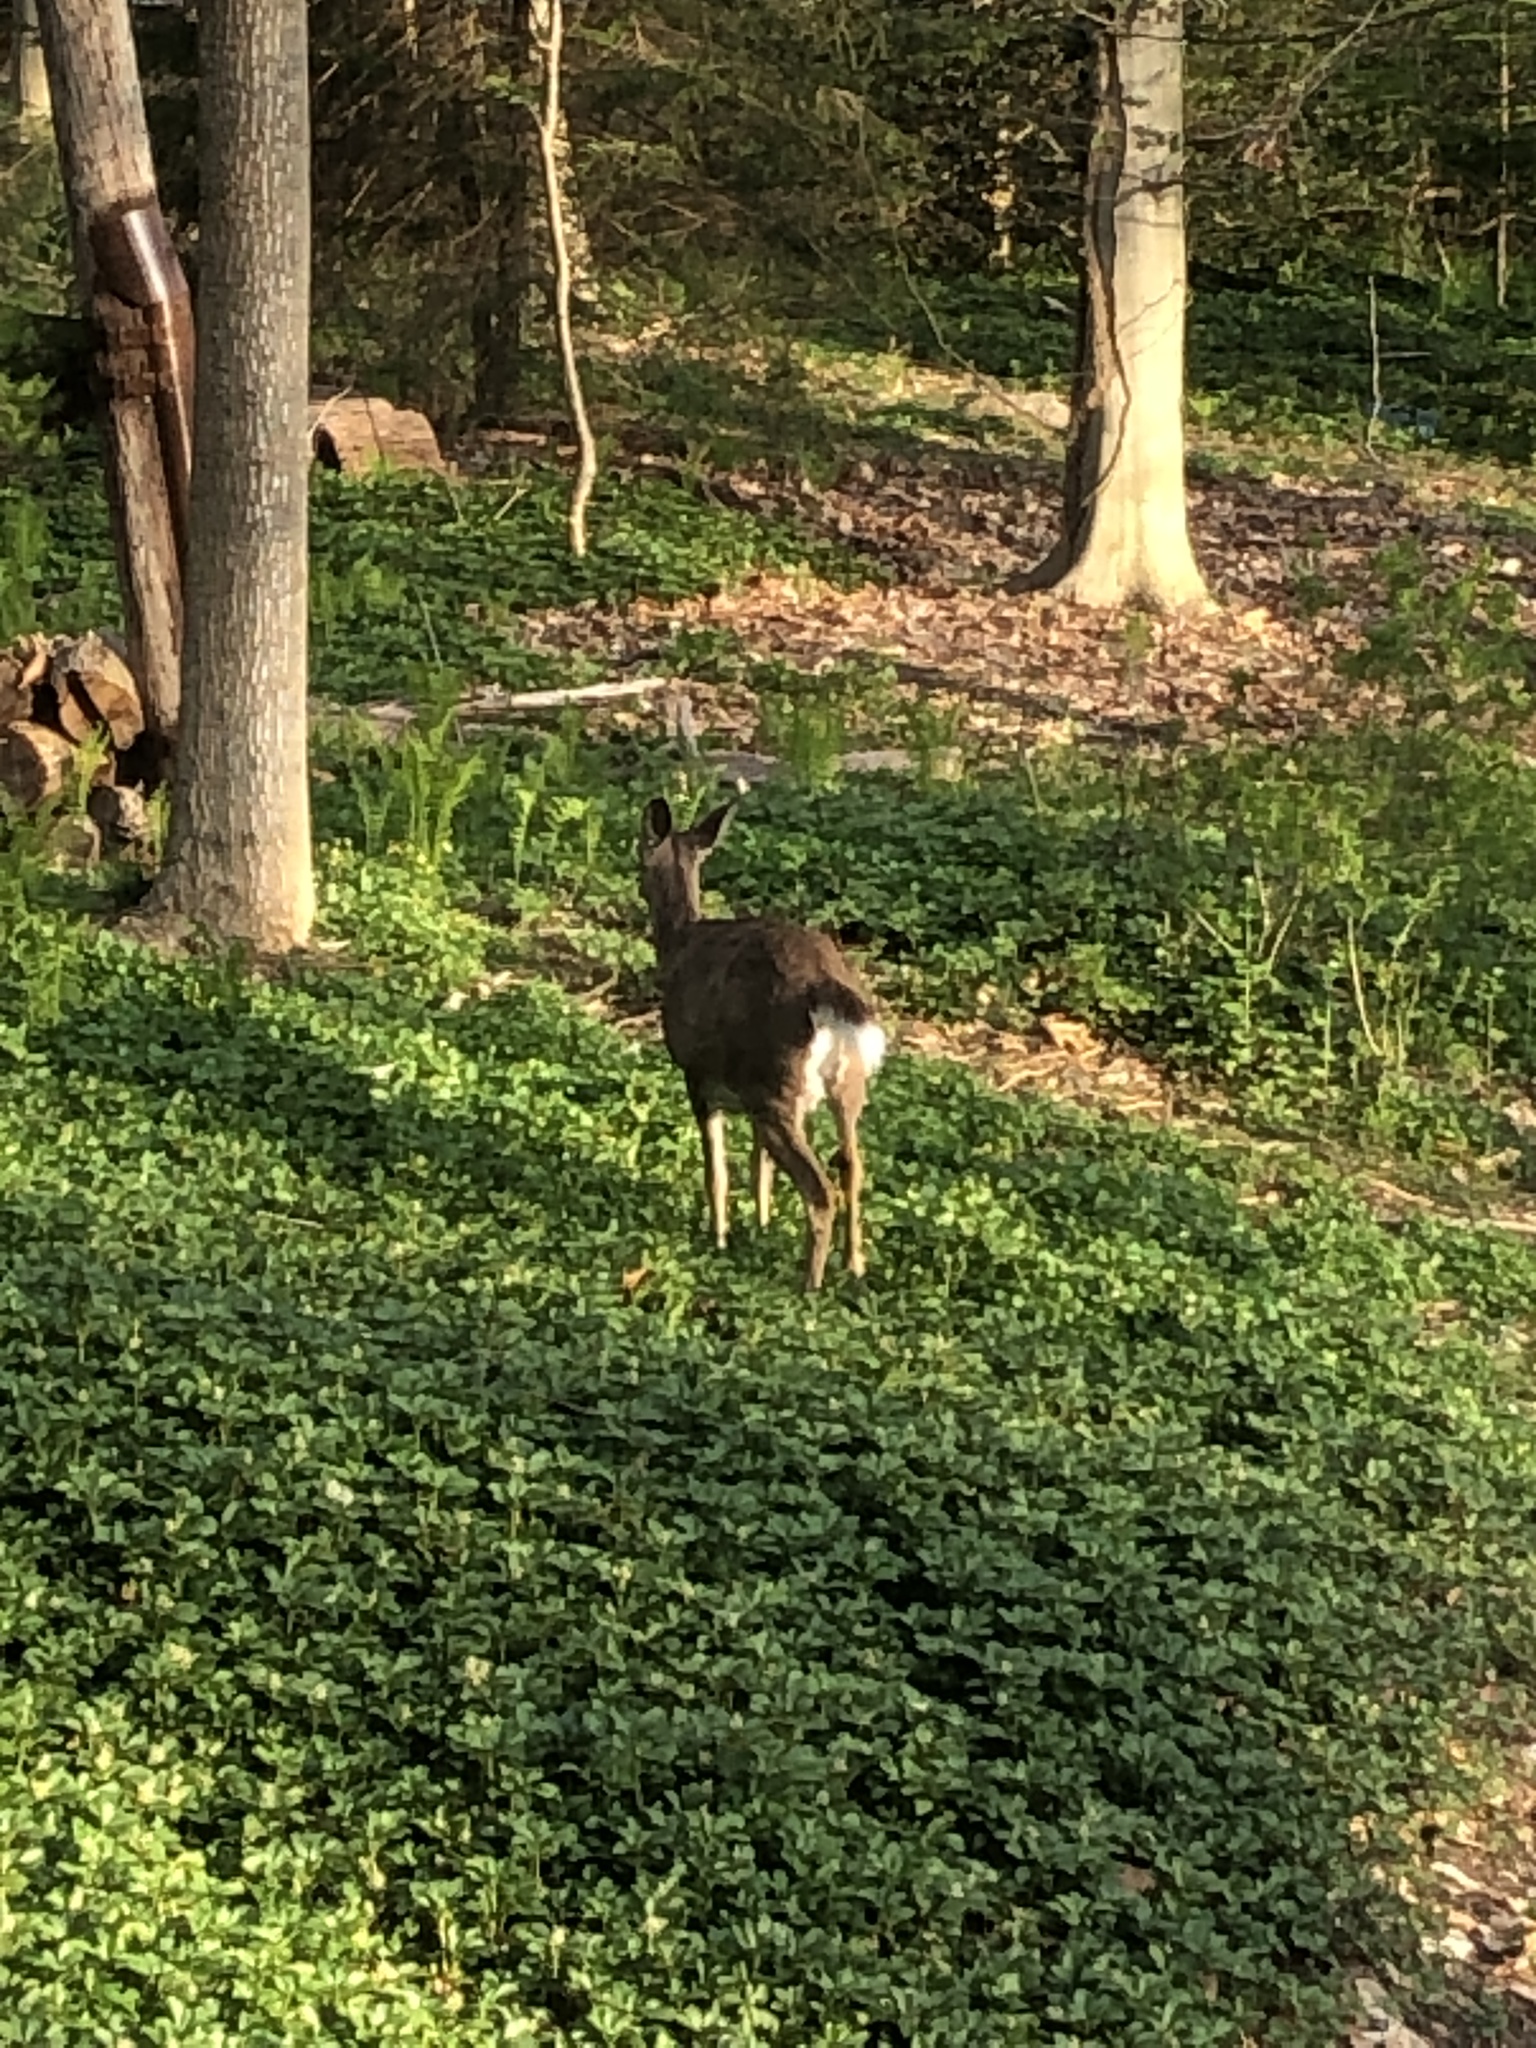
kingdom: Animalia
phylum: Chordata
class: Mammalia
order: Artiodactyla
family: Cervidae
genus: Odocoileus
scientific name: Odocoileus virginianus
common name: White-tailed deer
